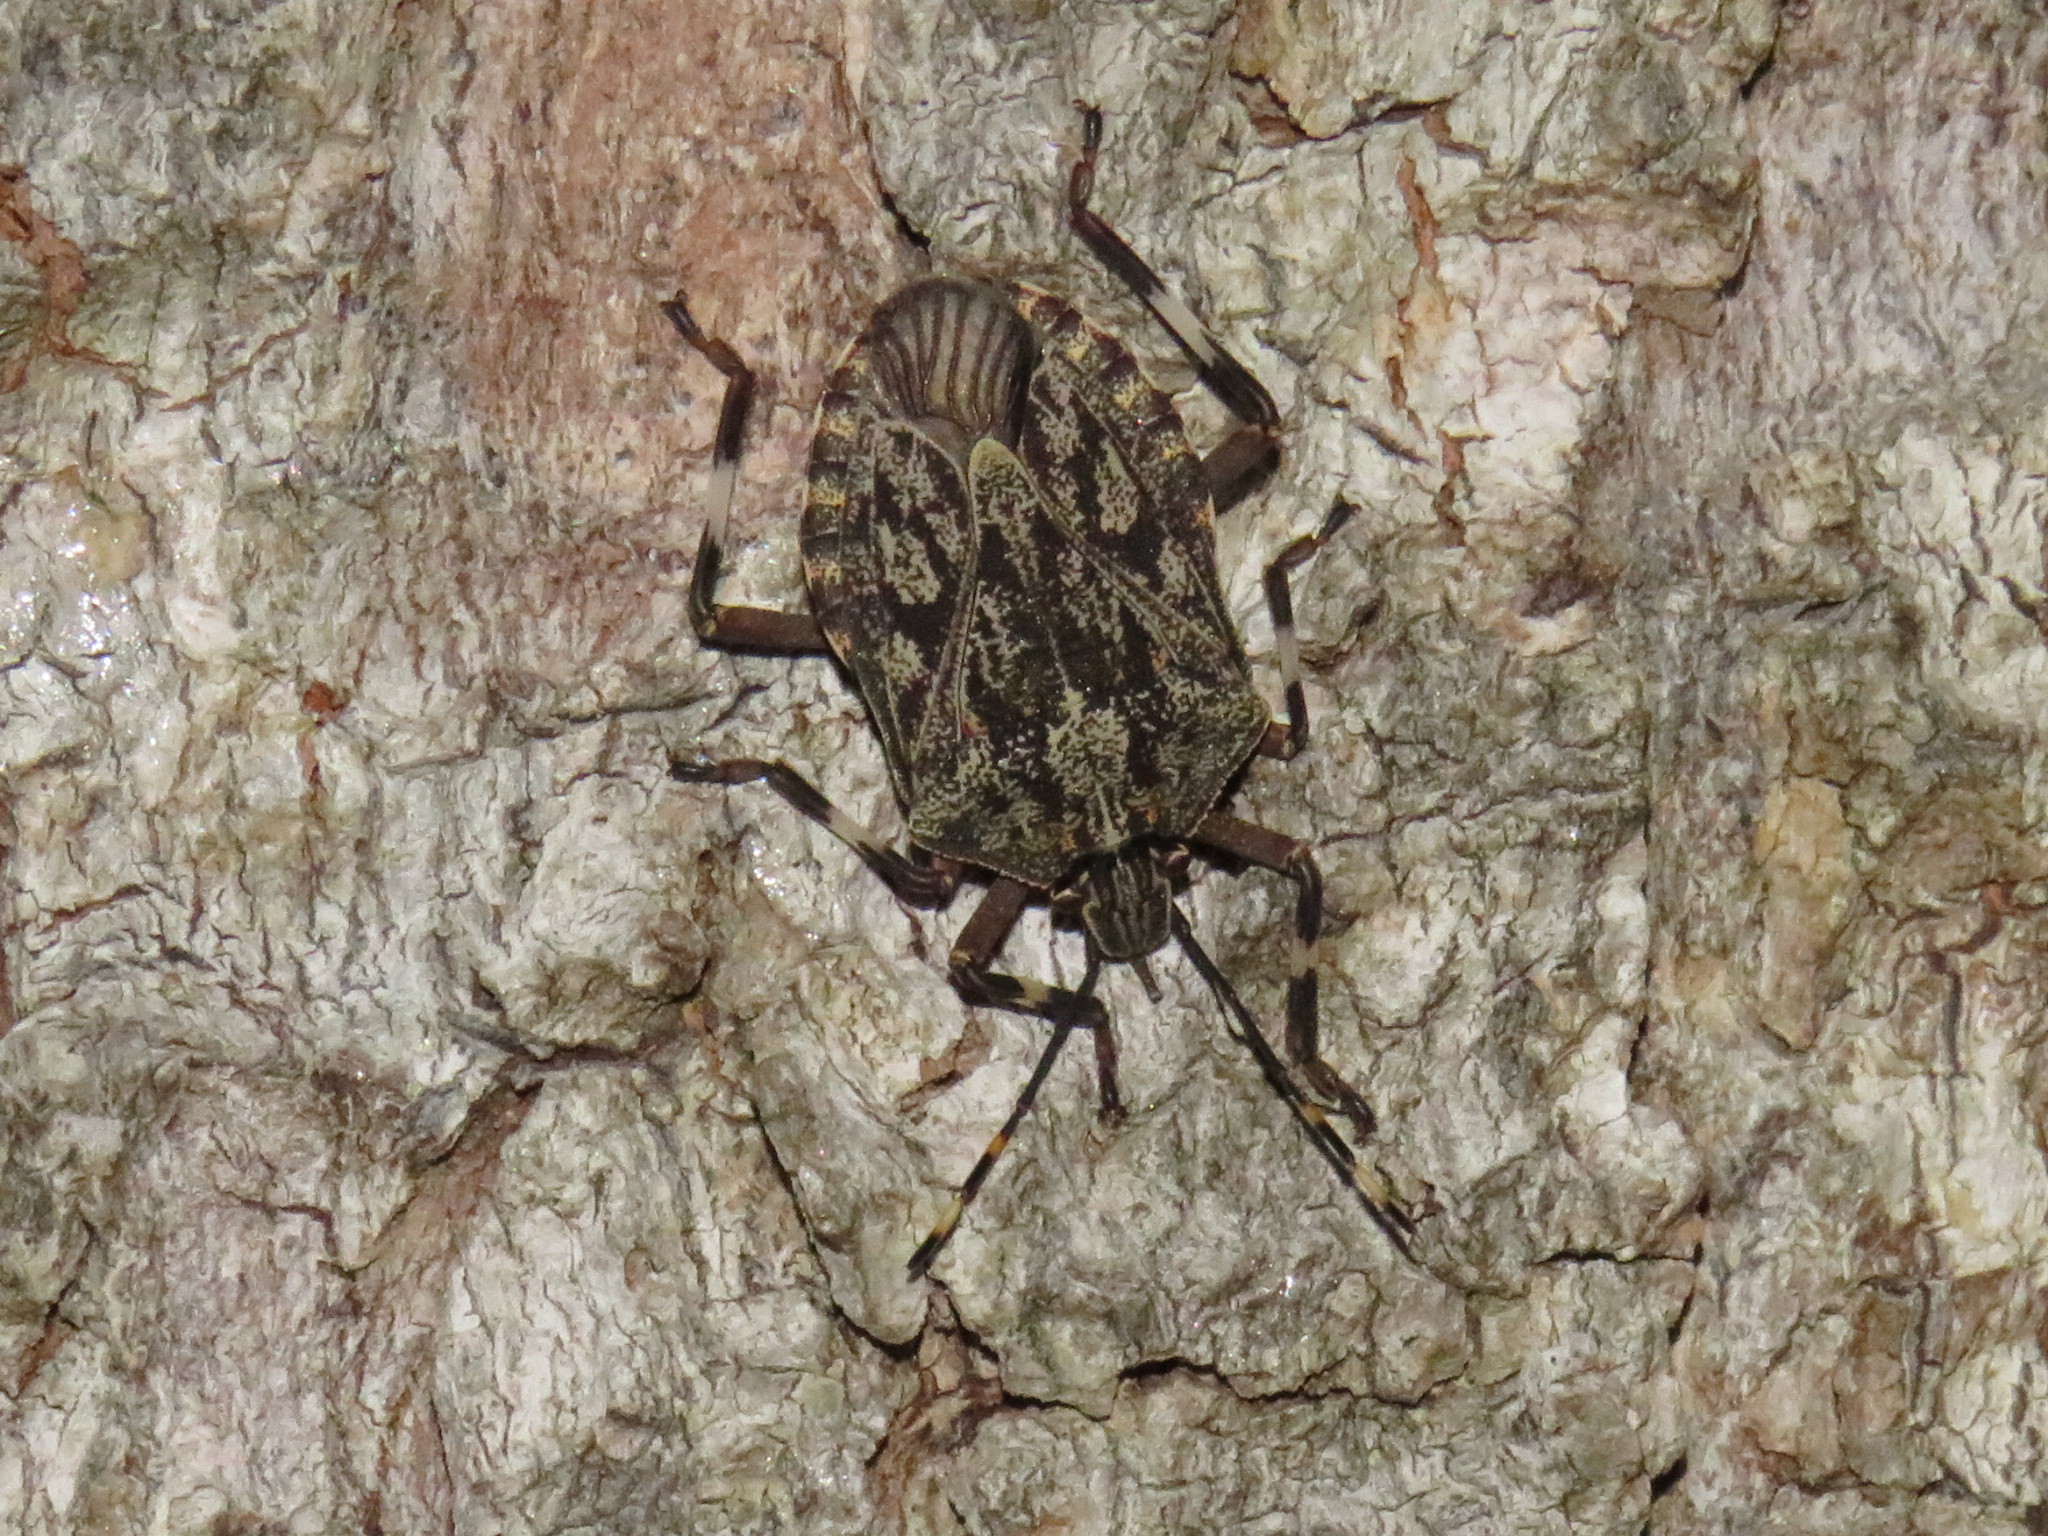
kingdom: Animalia
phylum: Arthropoda
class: Insecta
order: Hemiptera
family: Pentatomidae
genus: Coenomorpha
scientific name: Coenomorpha nervosa
